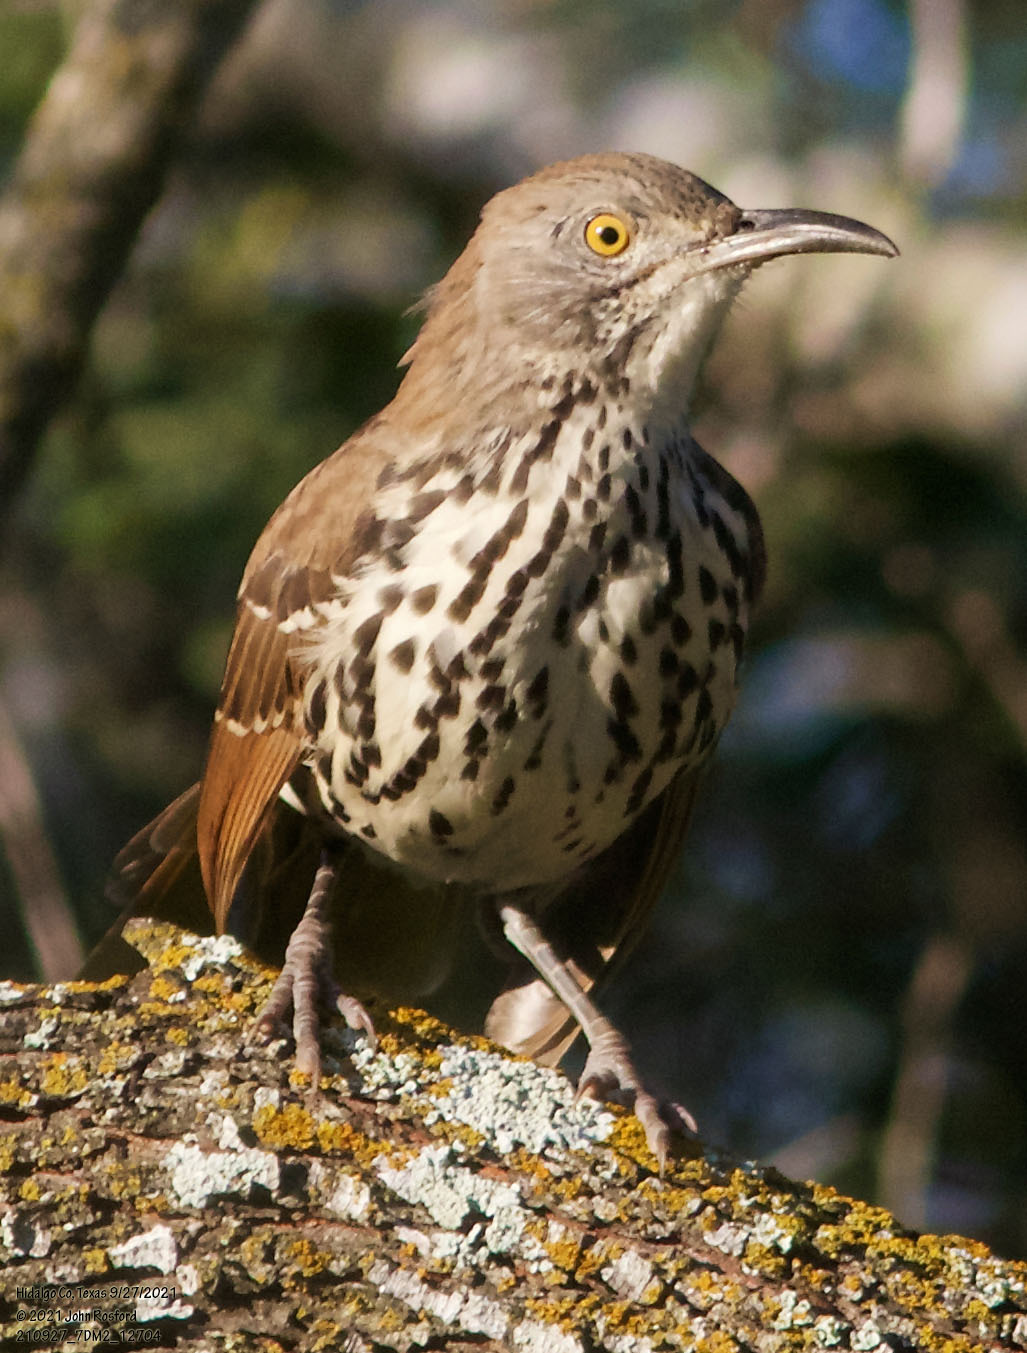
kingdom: Animalia
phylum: Chordata
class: Aves
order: Passeriformes
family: Mimidae
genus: Toxostoma
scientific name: Toxostoma longirostre
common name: Long-billed thrasher
